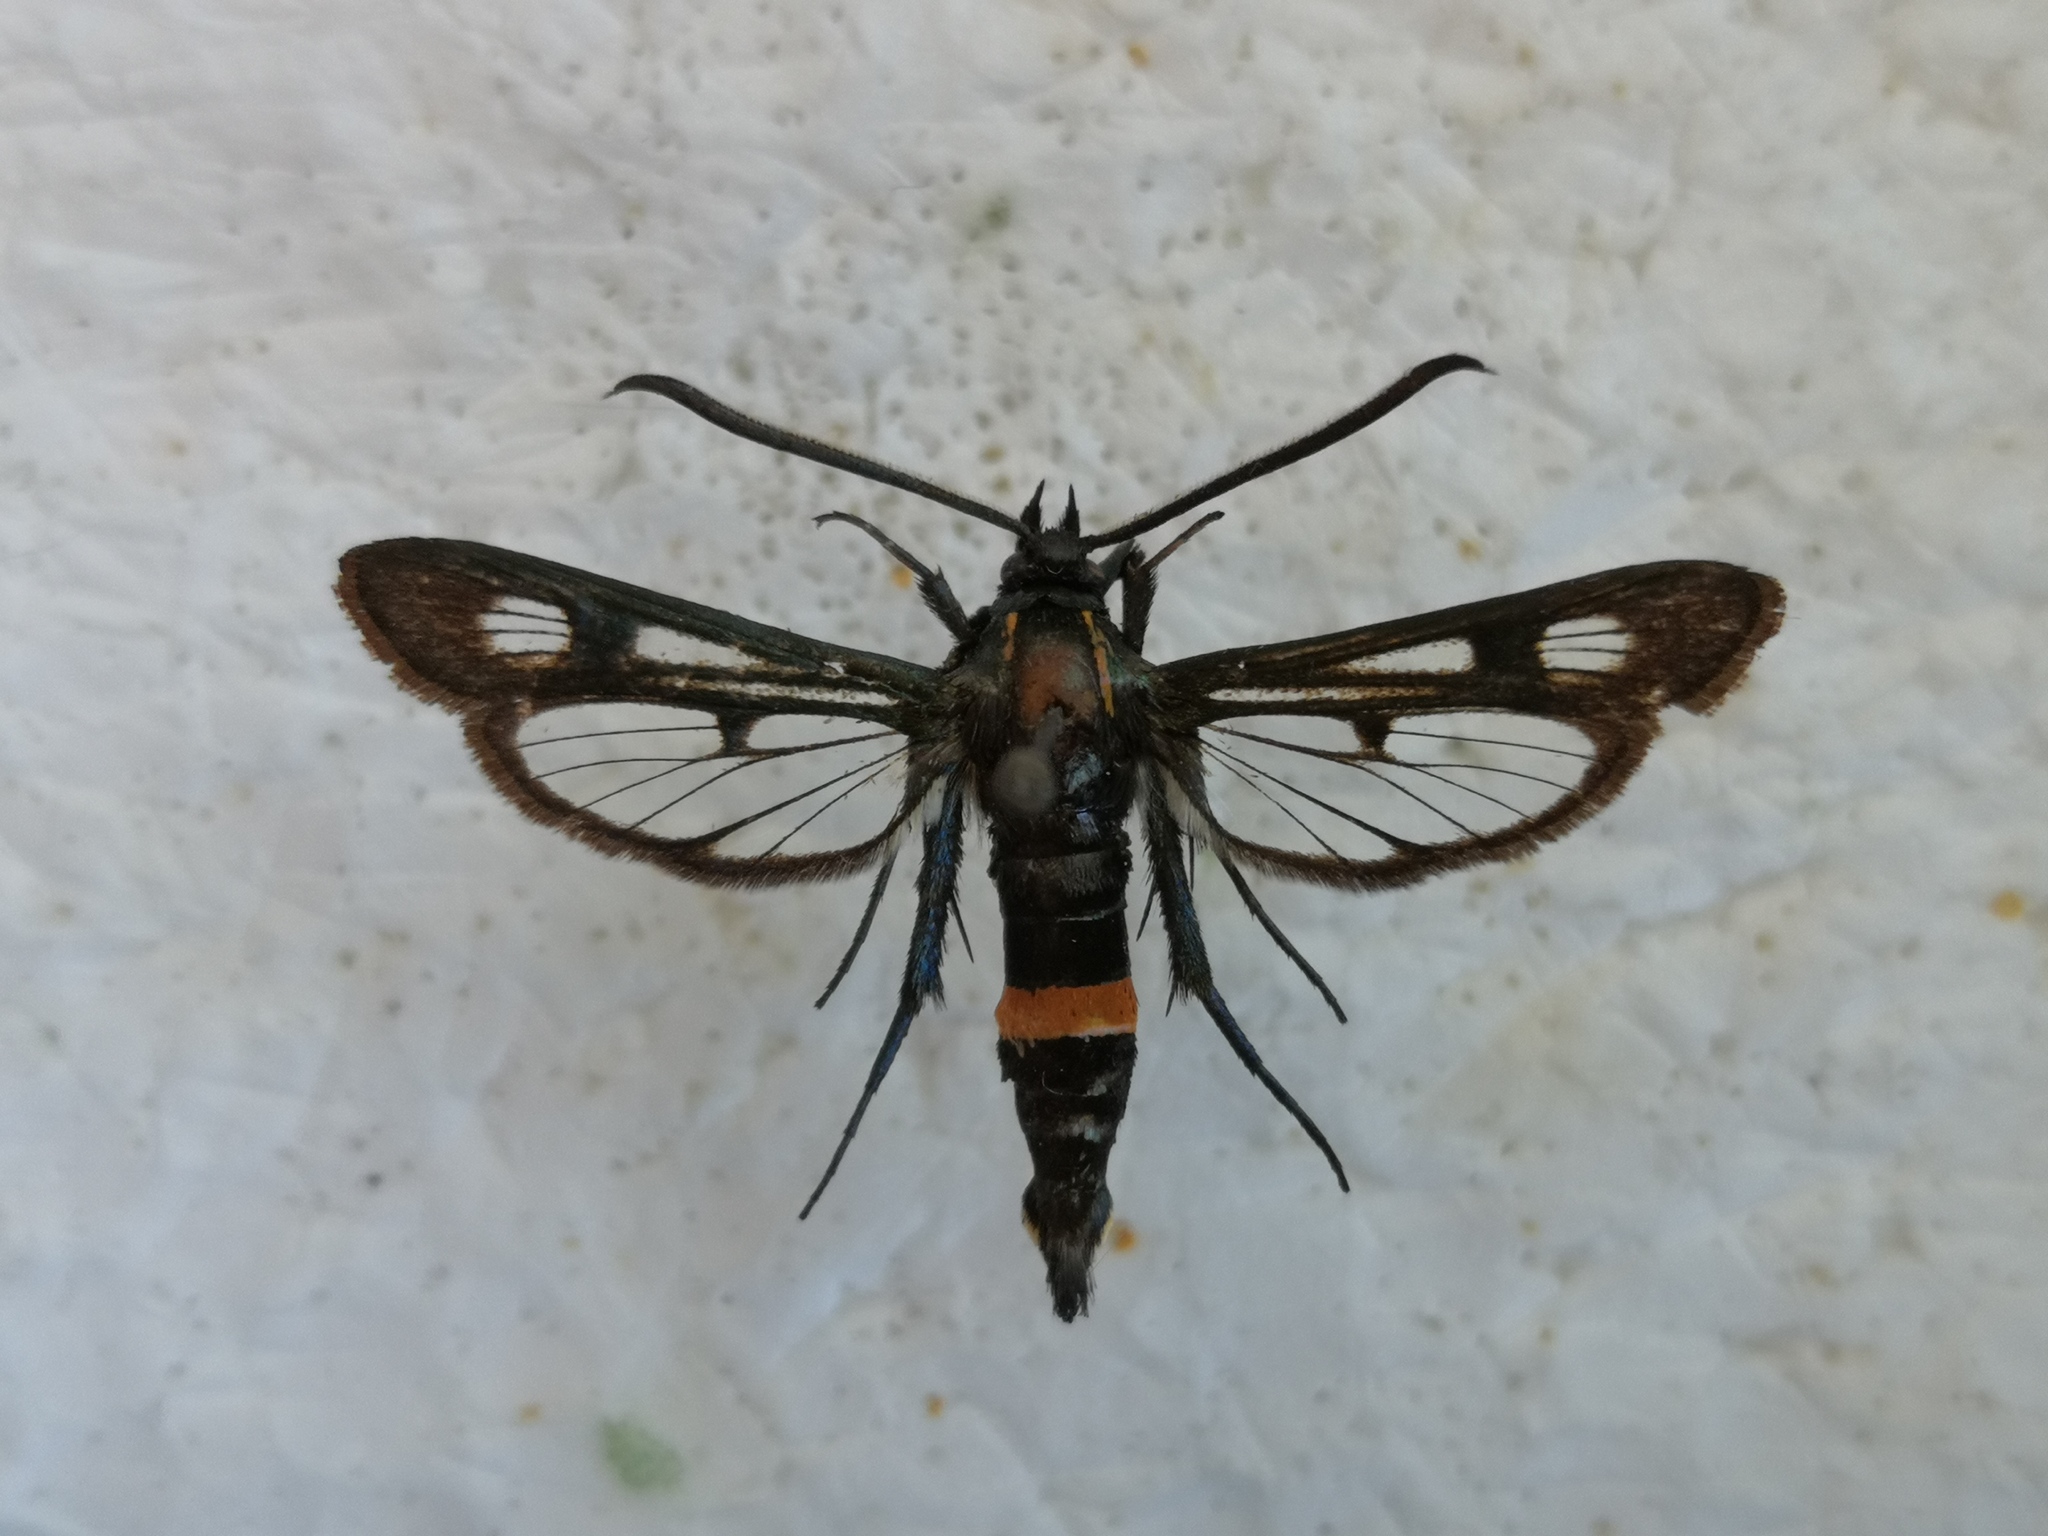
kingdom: Animalia
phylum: Arthropoda
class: Insecta
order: Lepidoptera
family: Sesiidae
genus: Synanthedon
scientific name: Synanthedon stomoxiformis
